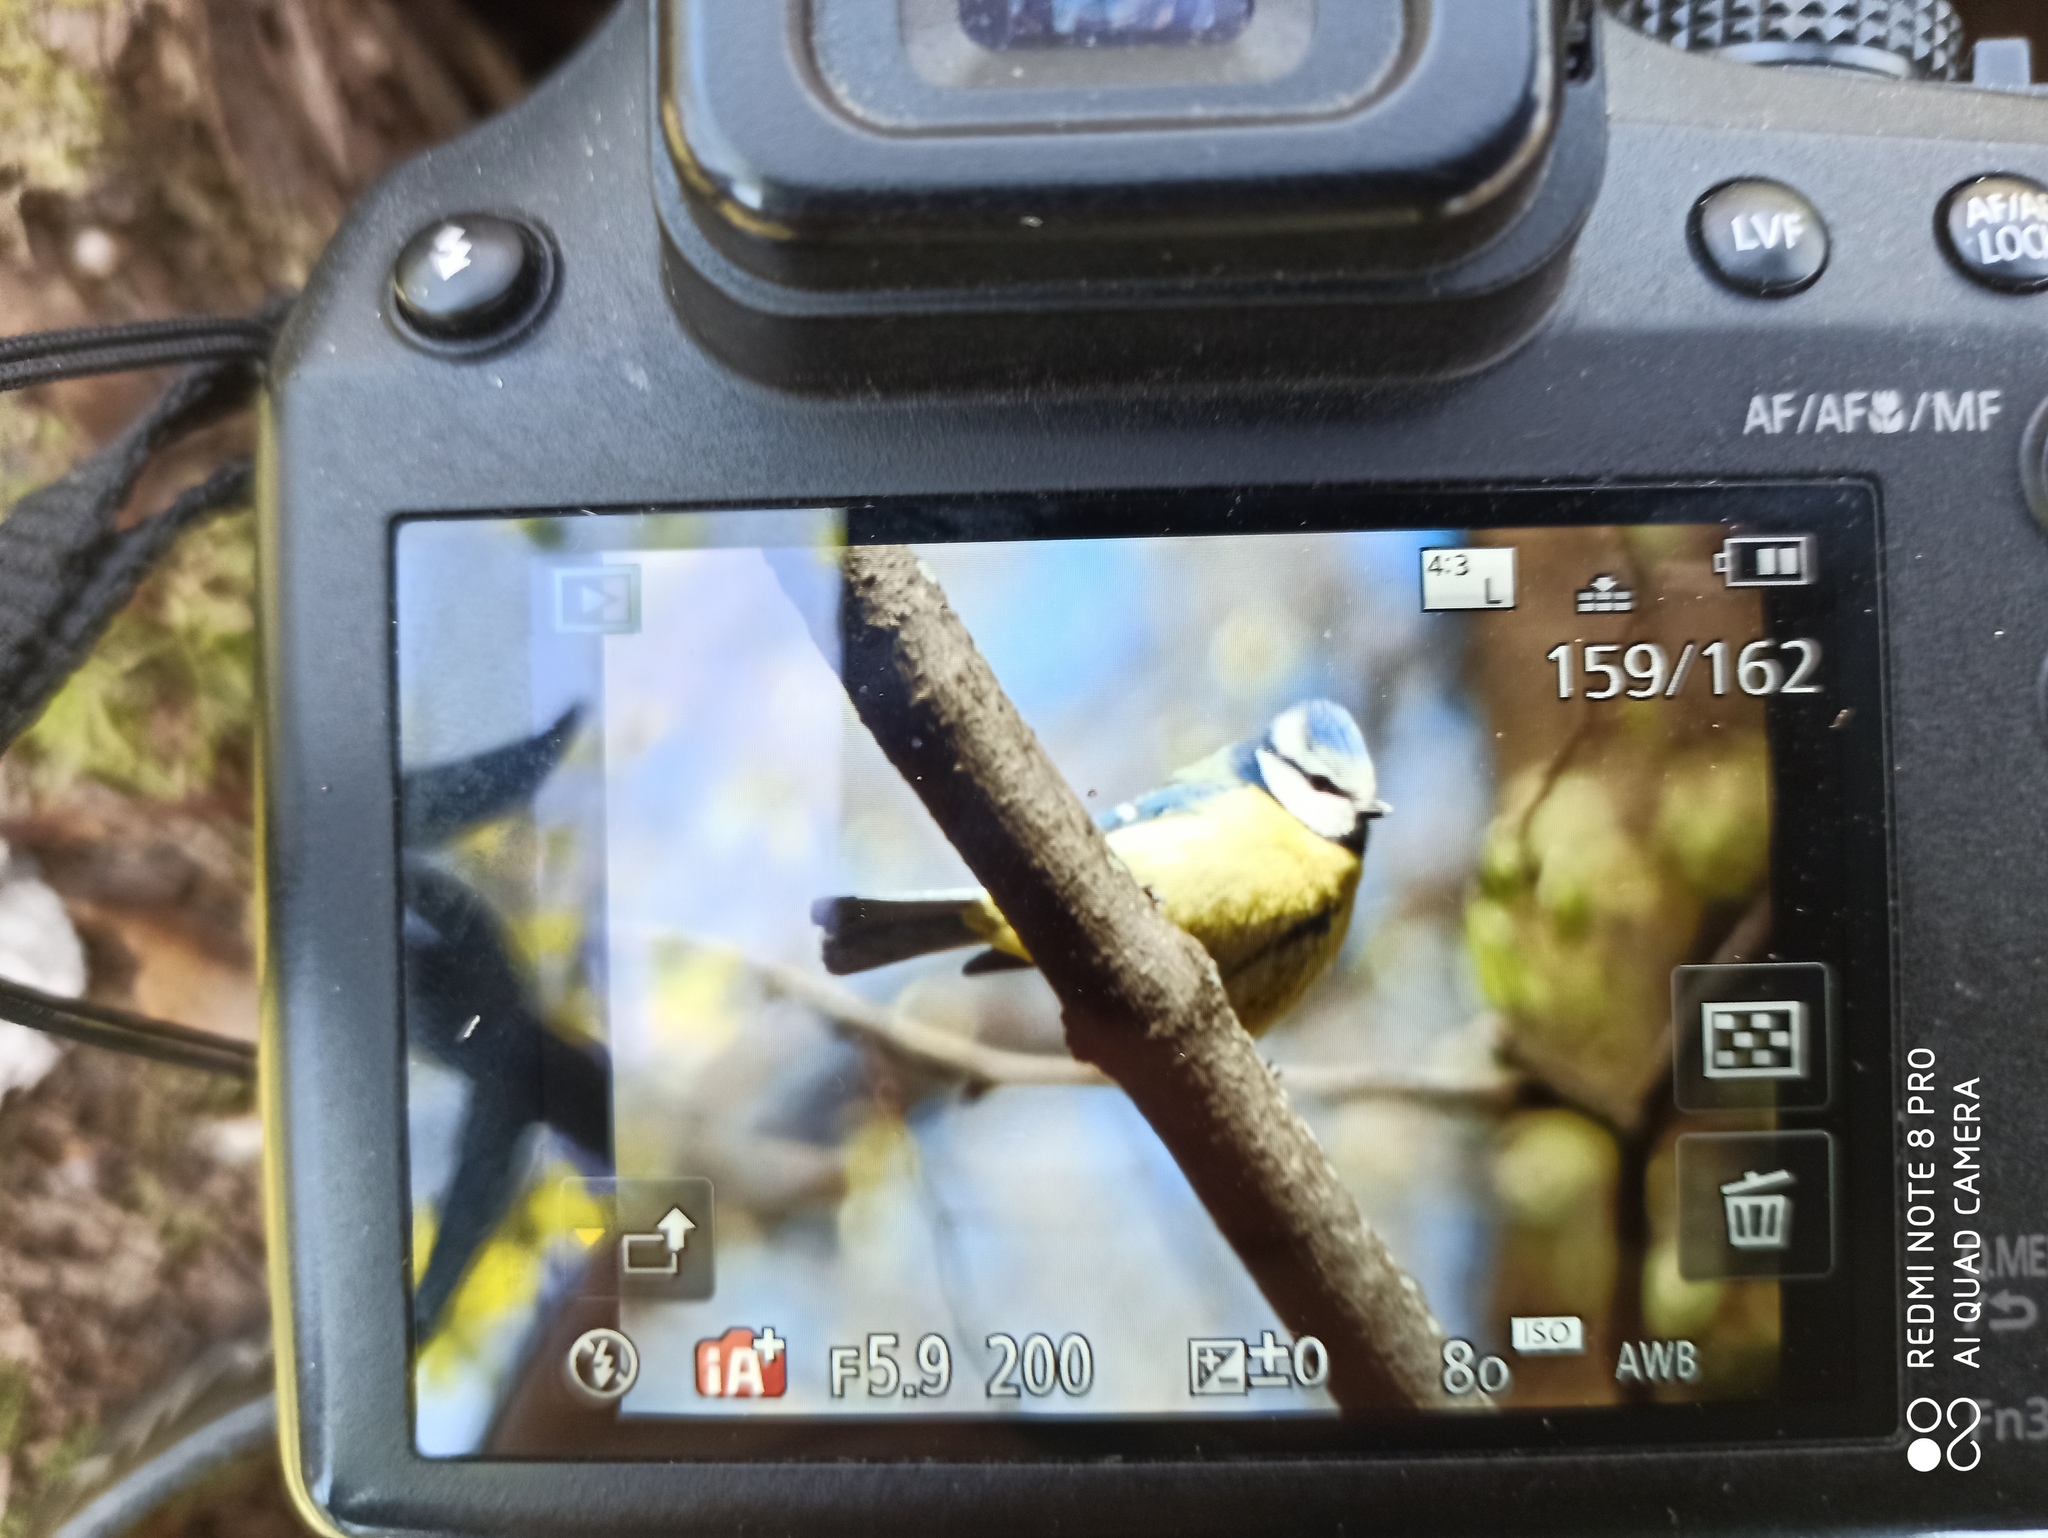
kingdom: Animalia
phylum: Chordata
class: Aves
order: Passeriformes
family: Paridae
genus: Cyanistes
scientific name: Cyanistes caeruleus
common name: Eurasian blue tit
